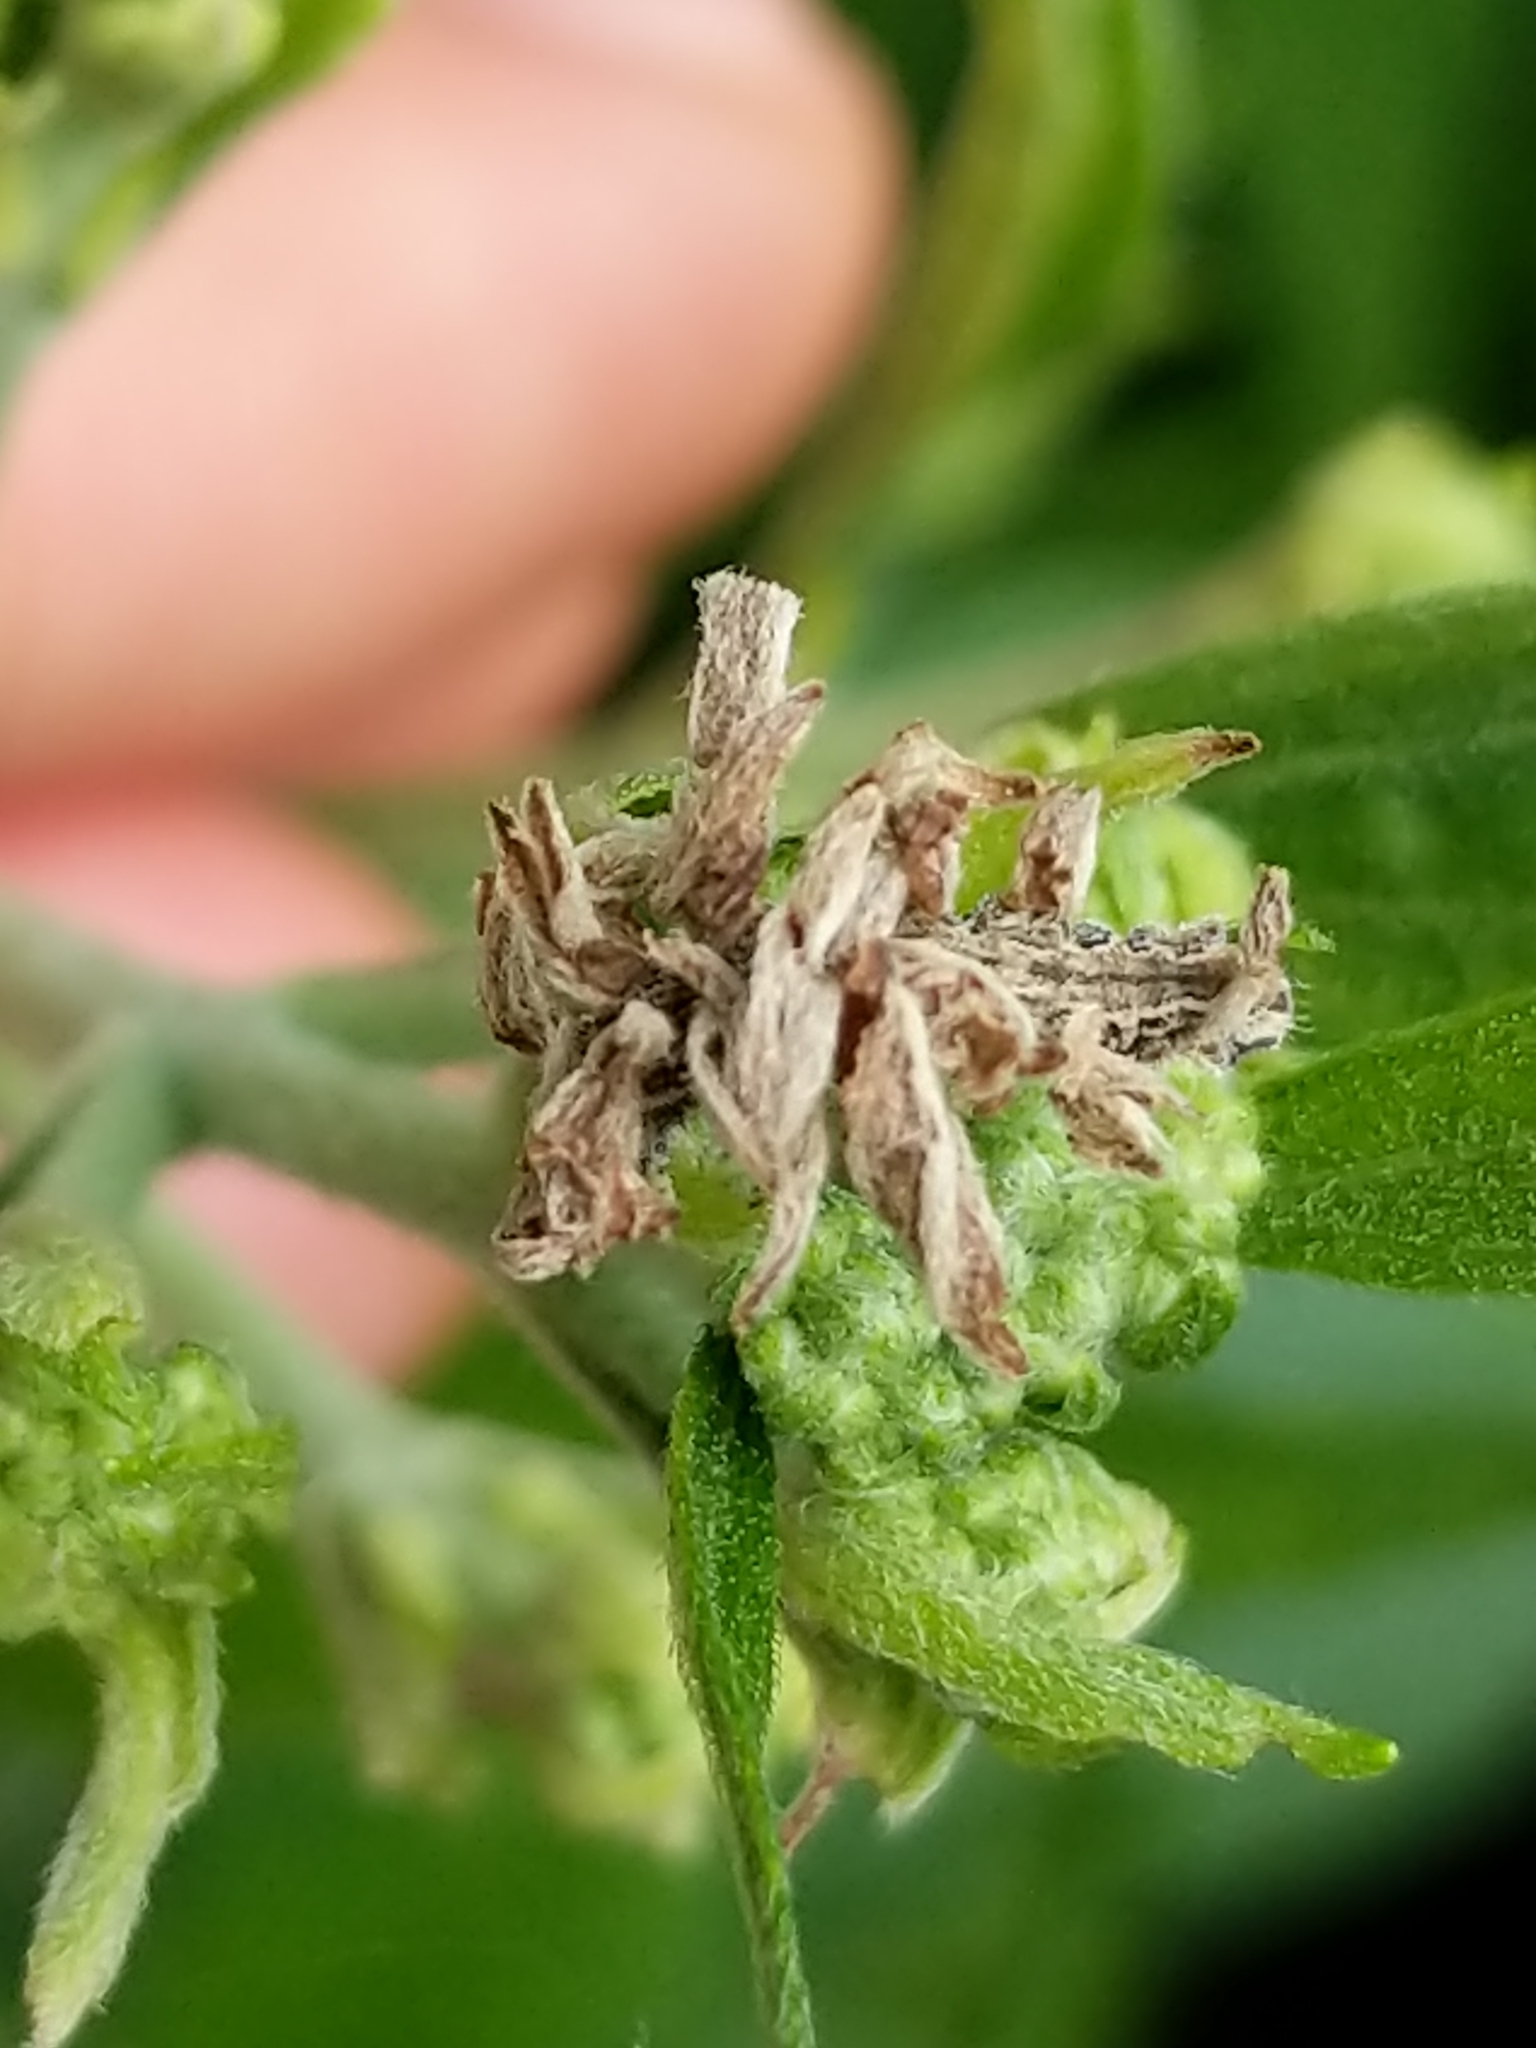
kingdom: Animalia
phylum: Arthropoda
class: Insecta
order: Lepidoptera
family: Geometridae
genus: Synchlora
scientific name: Synchlora aerata
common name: Wavy-lined emerald
